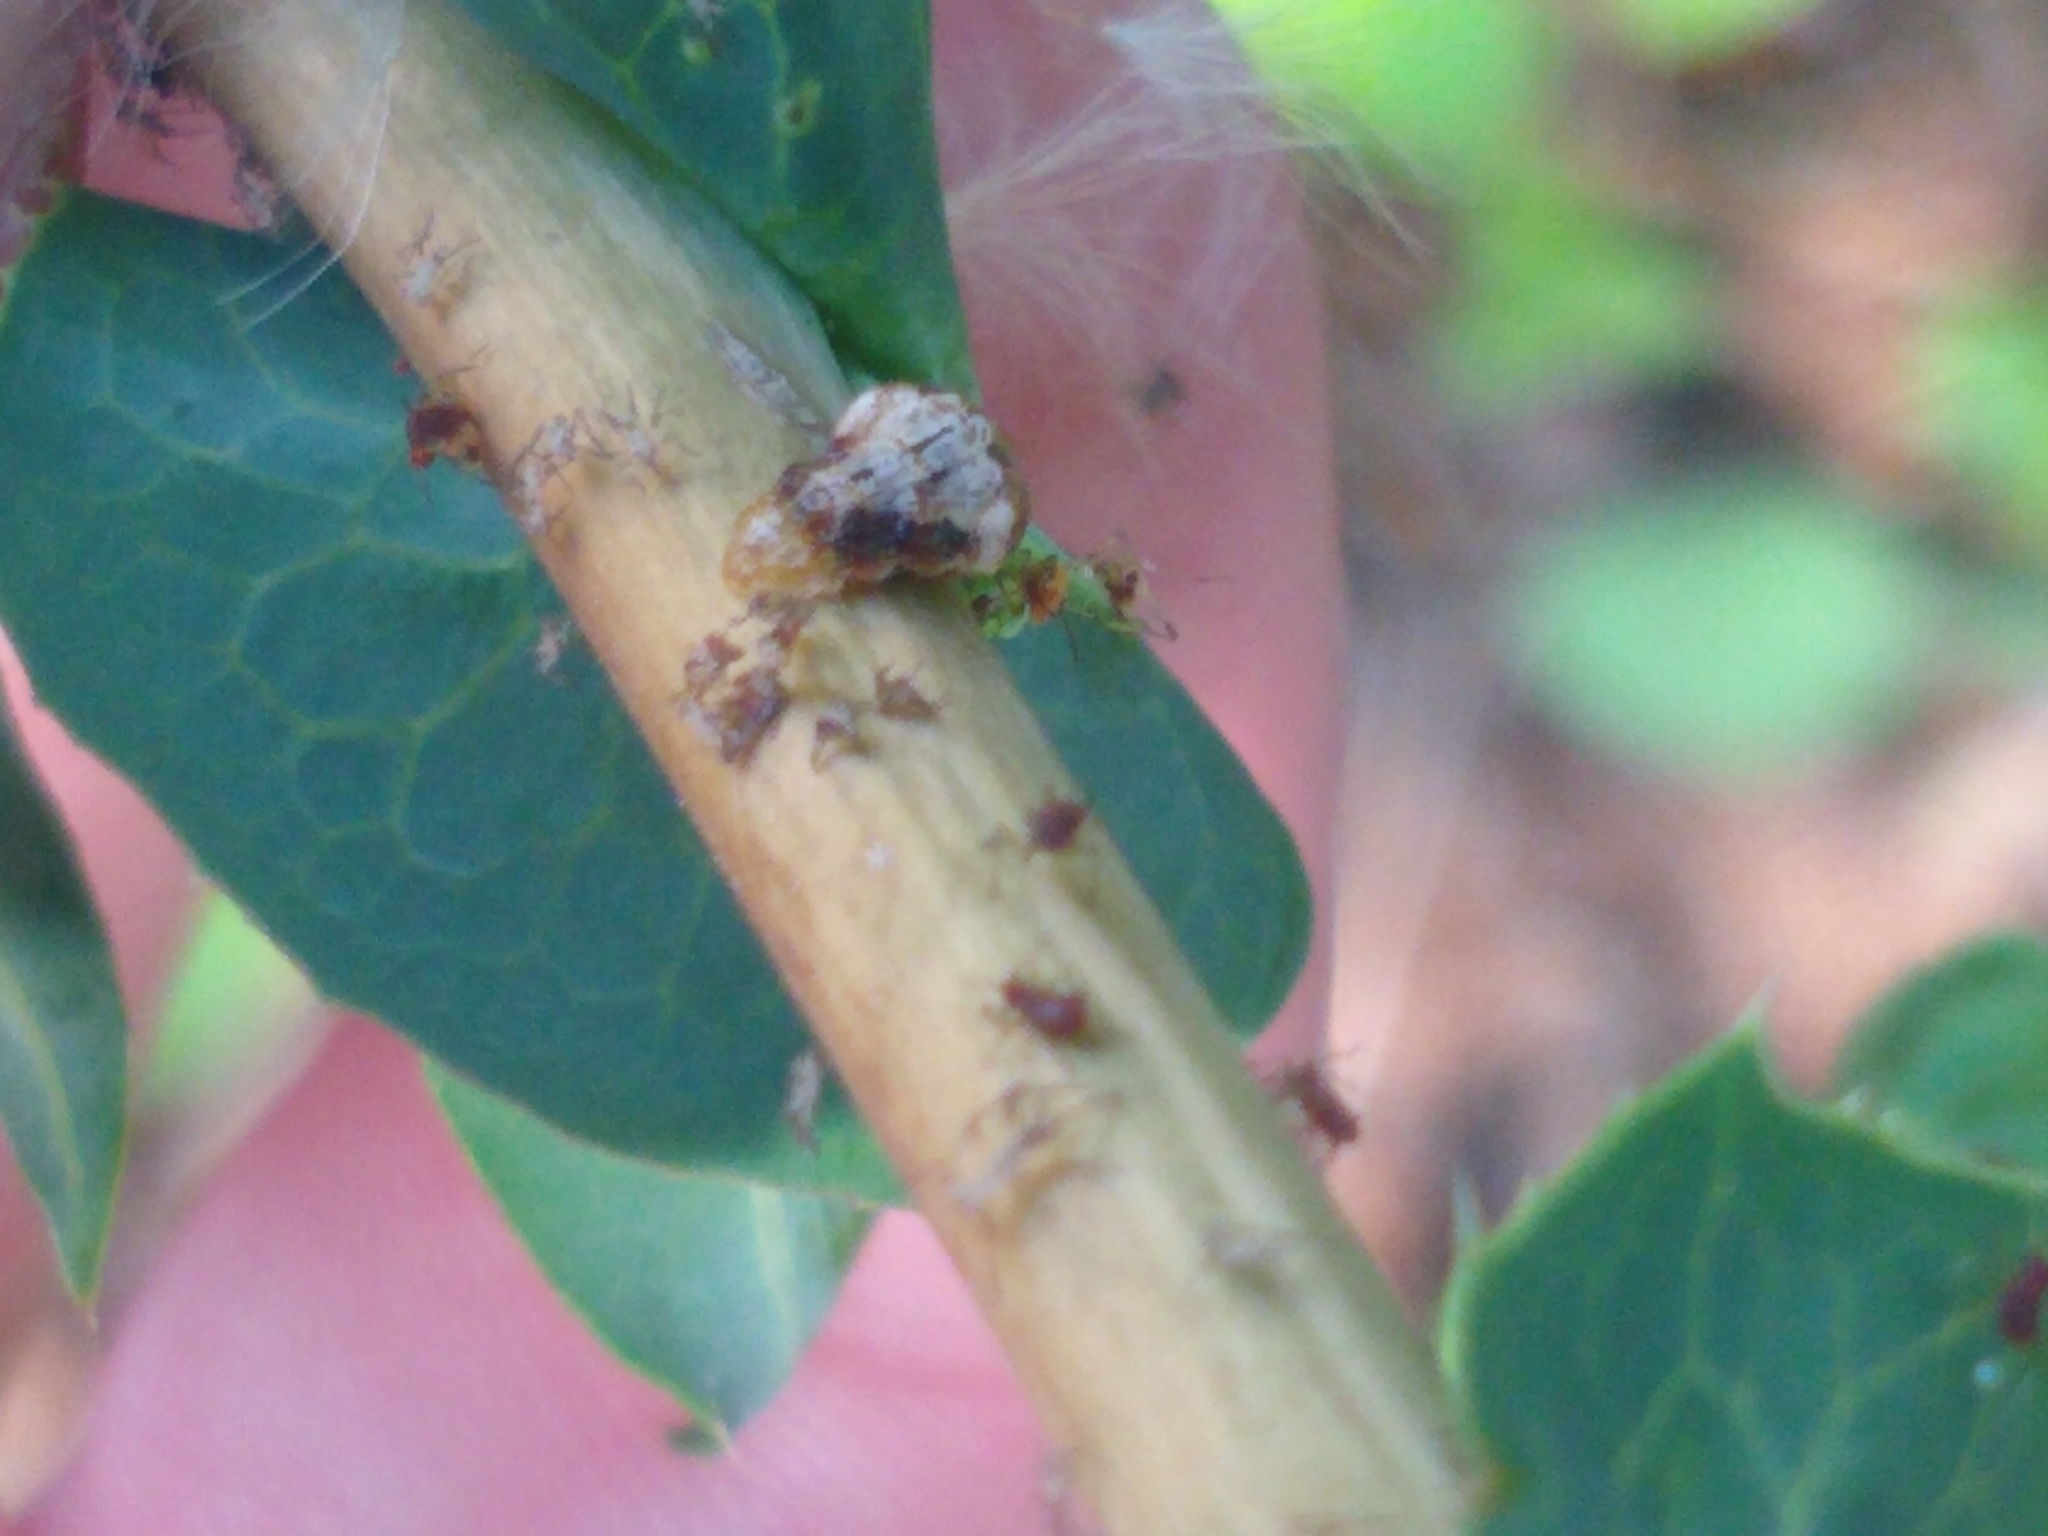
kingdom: Animalia
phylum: Arthropoda
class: Insecta
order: Diptera
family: Syrphidae
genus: Ocyptamus
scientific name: Ocyptamus fuscipennis
